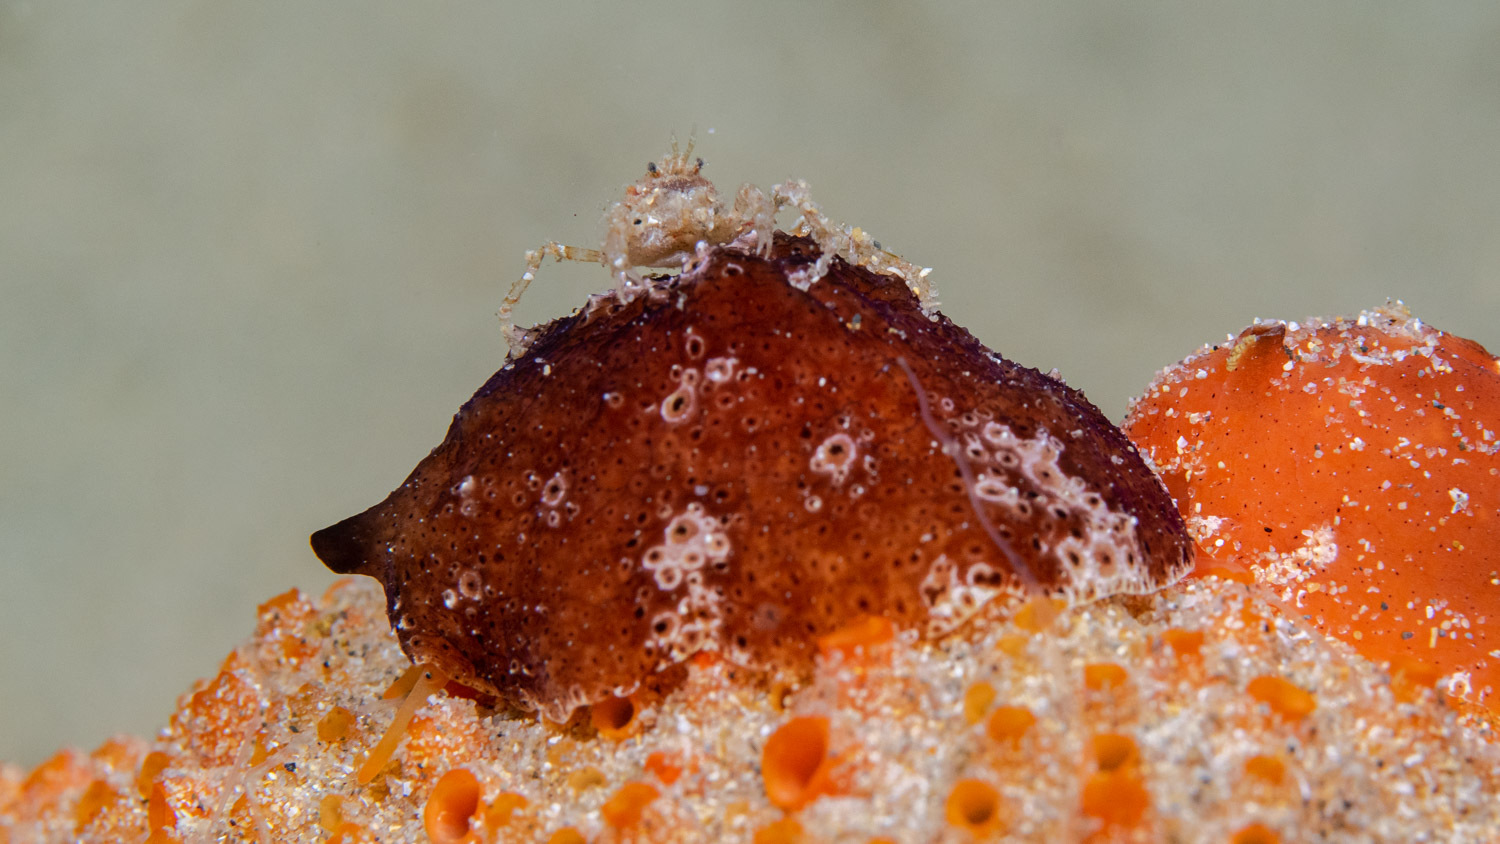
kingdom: Animalia
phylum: Mollusca
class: Gastropoda
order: Littorinimorpha
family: Velutinidae
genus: Djiboutia
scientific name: Djiboutia australis
